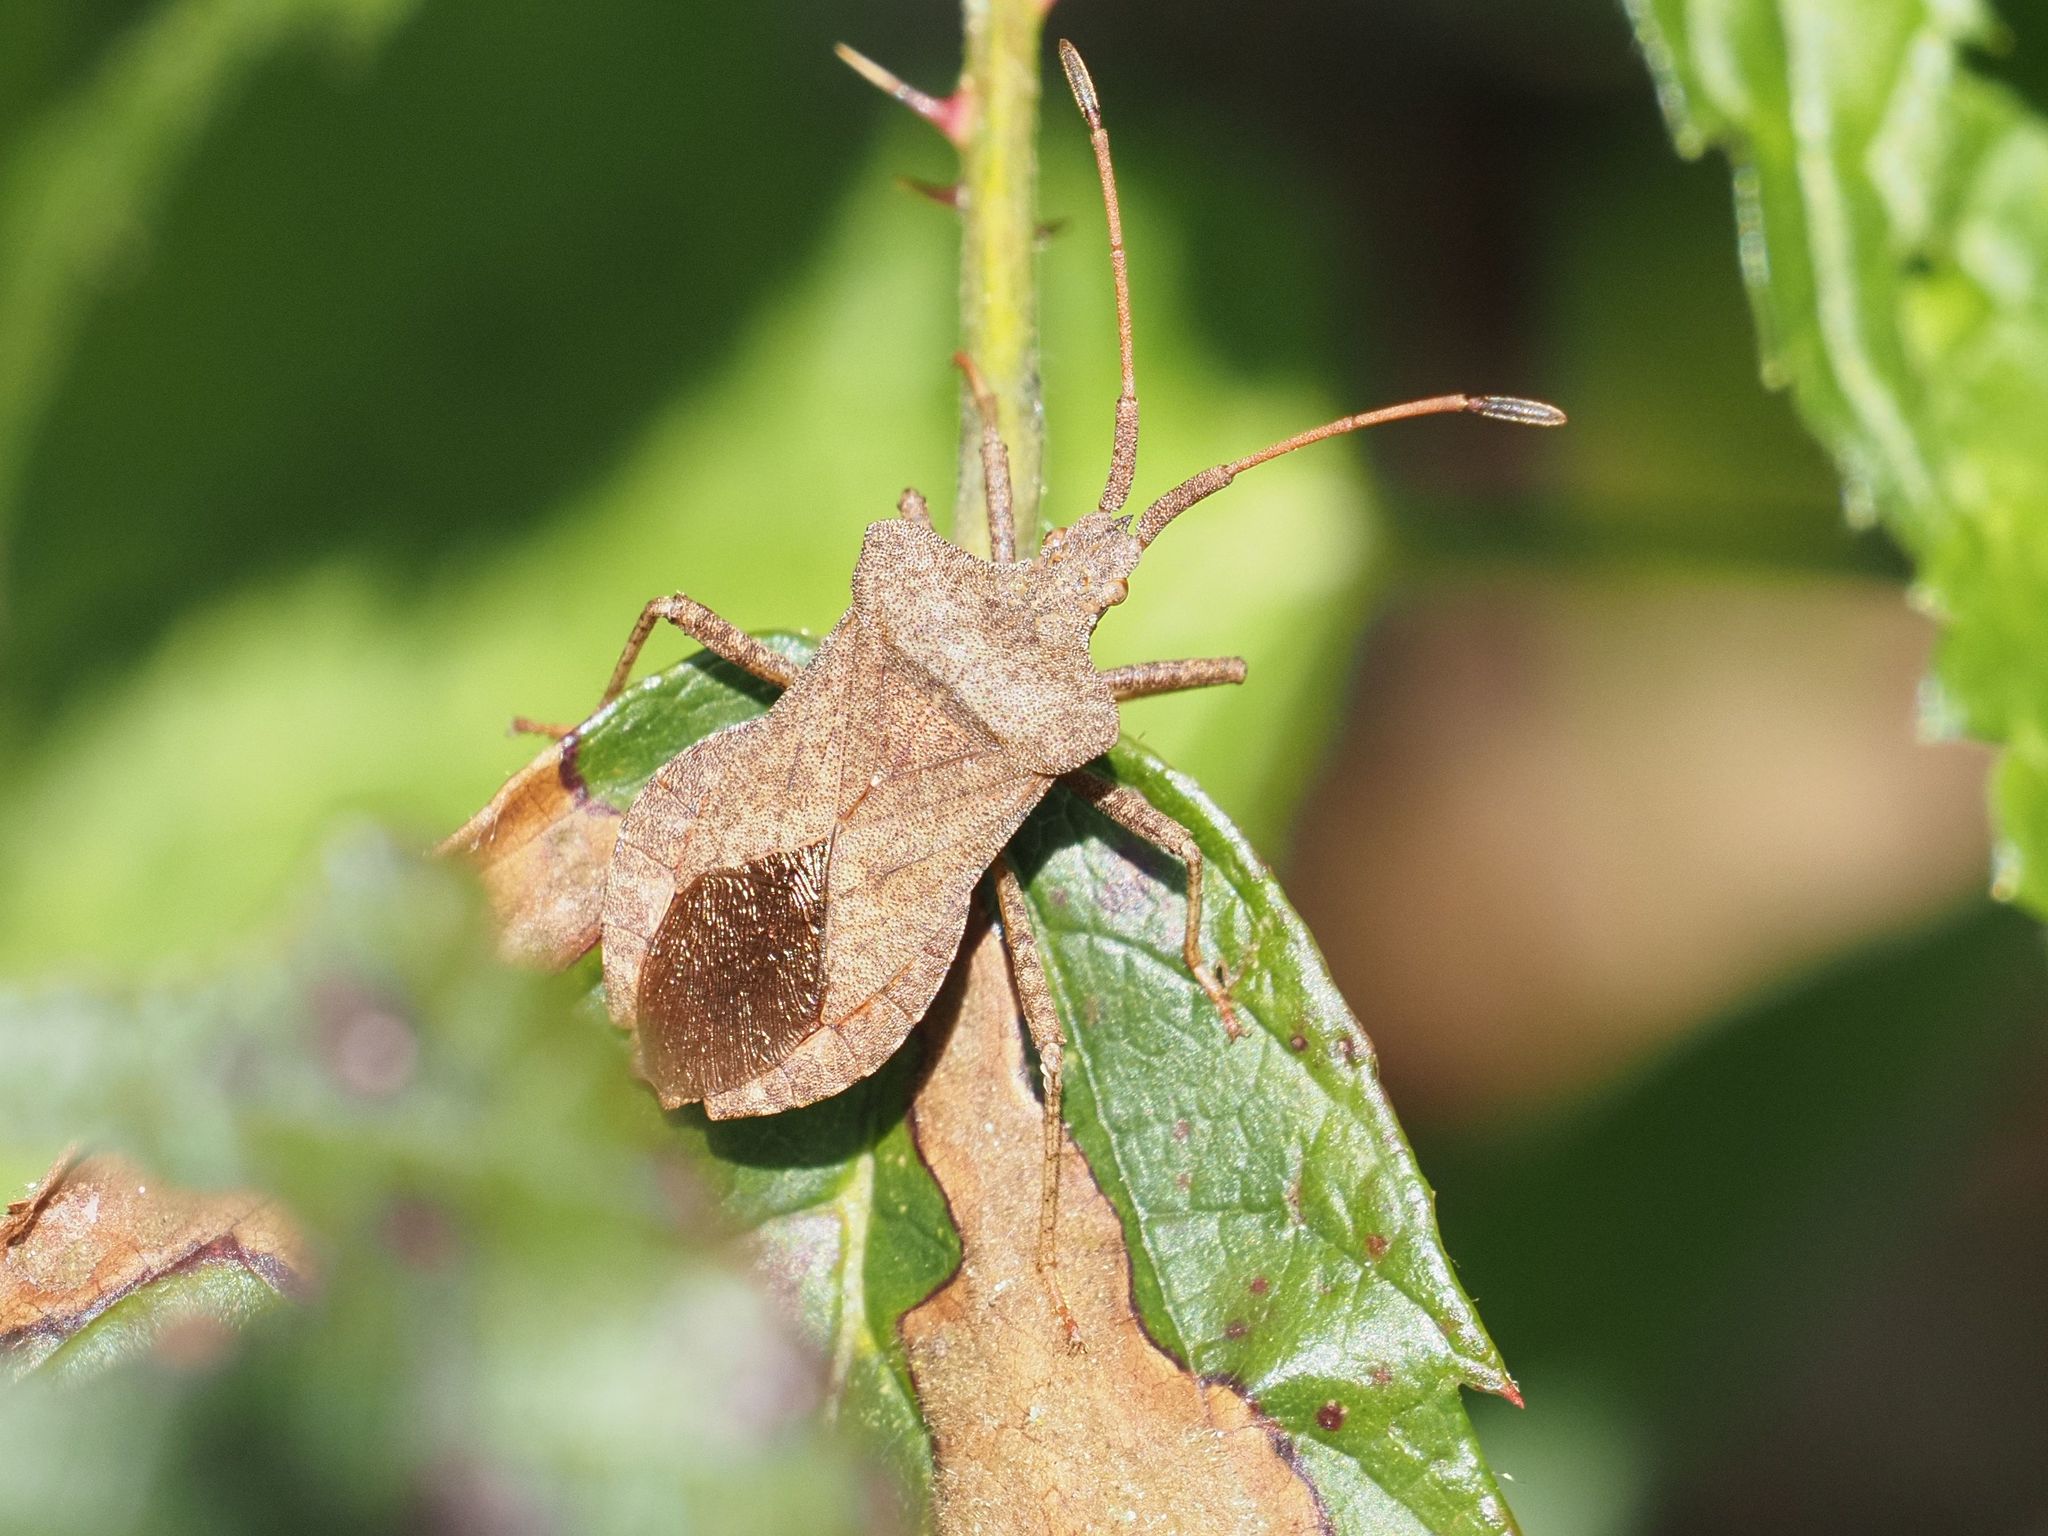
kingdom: Animalia
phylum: Arthropoda
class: Insecta
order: Hemiptera
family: Coreidae
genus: Coreus
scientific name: Coreus marginatus
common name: Dock bug
